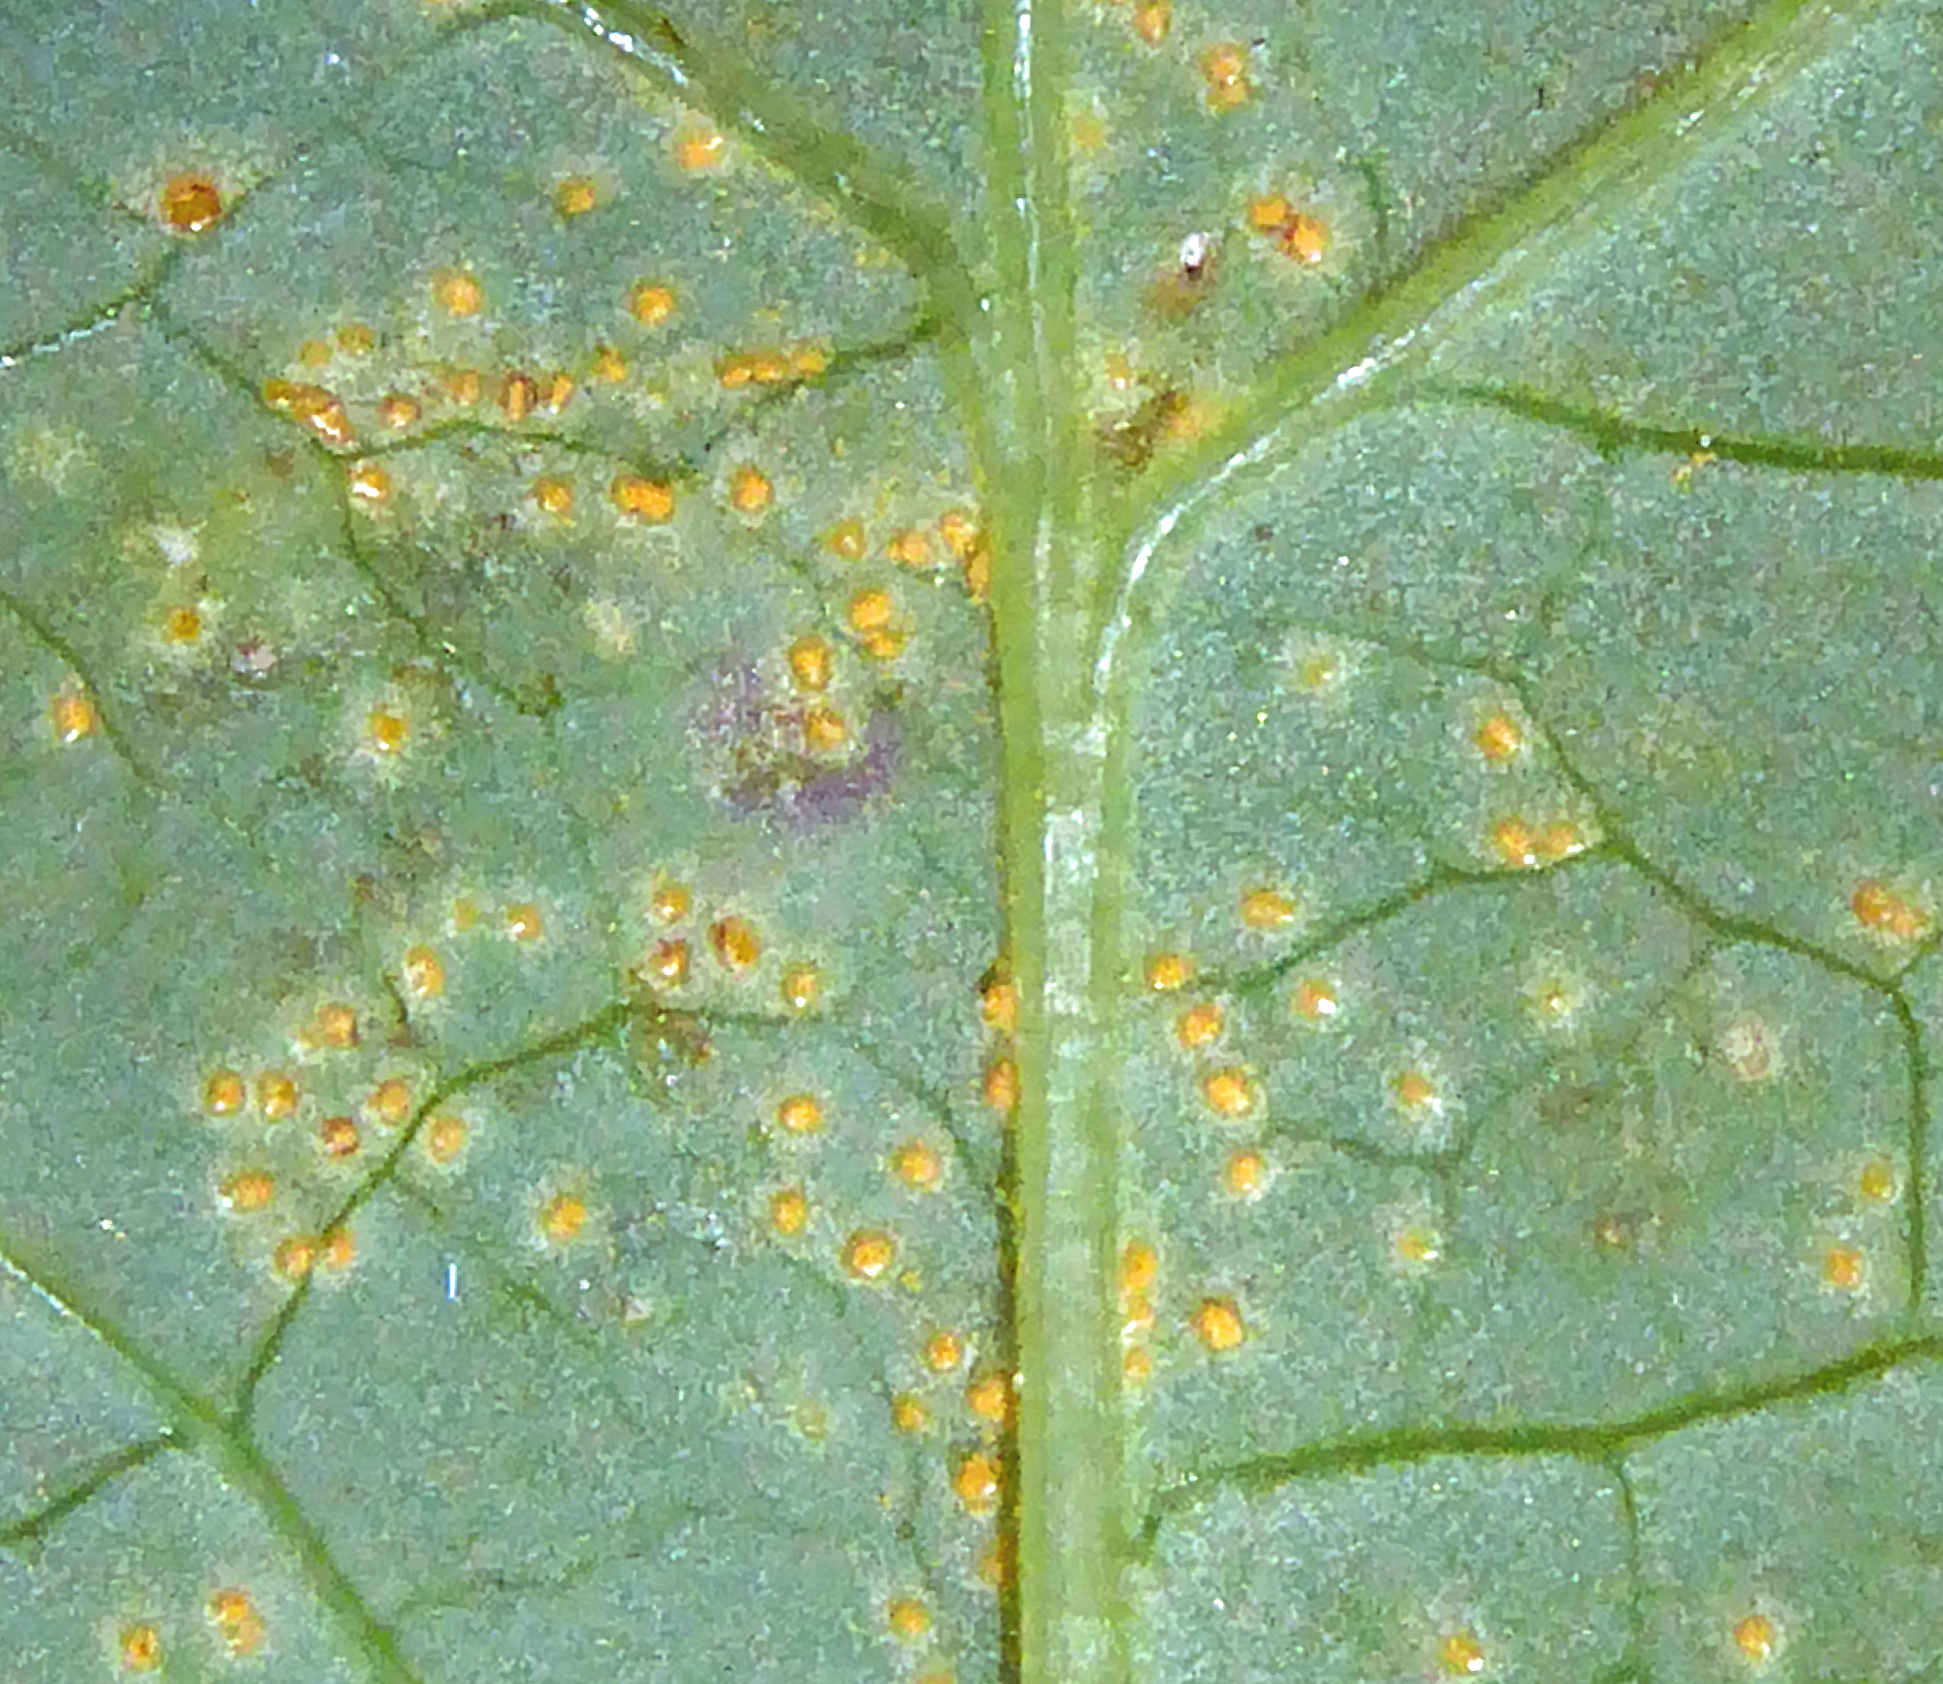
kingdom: Fungi
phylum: Basidiomycota
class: Pucciniomycetes
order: Pucciniales
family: Pucciniaceae
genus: Peristemma
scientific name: Peristemma pseudosphaeria
